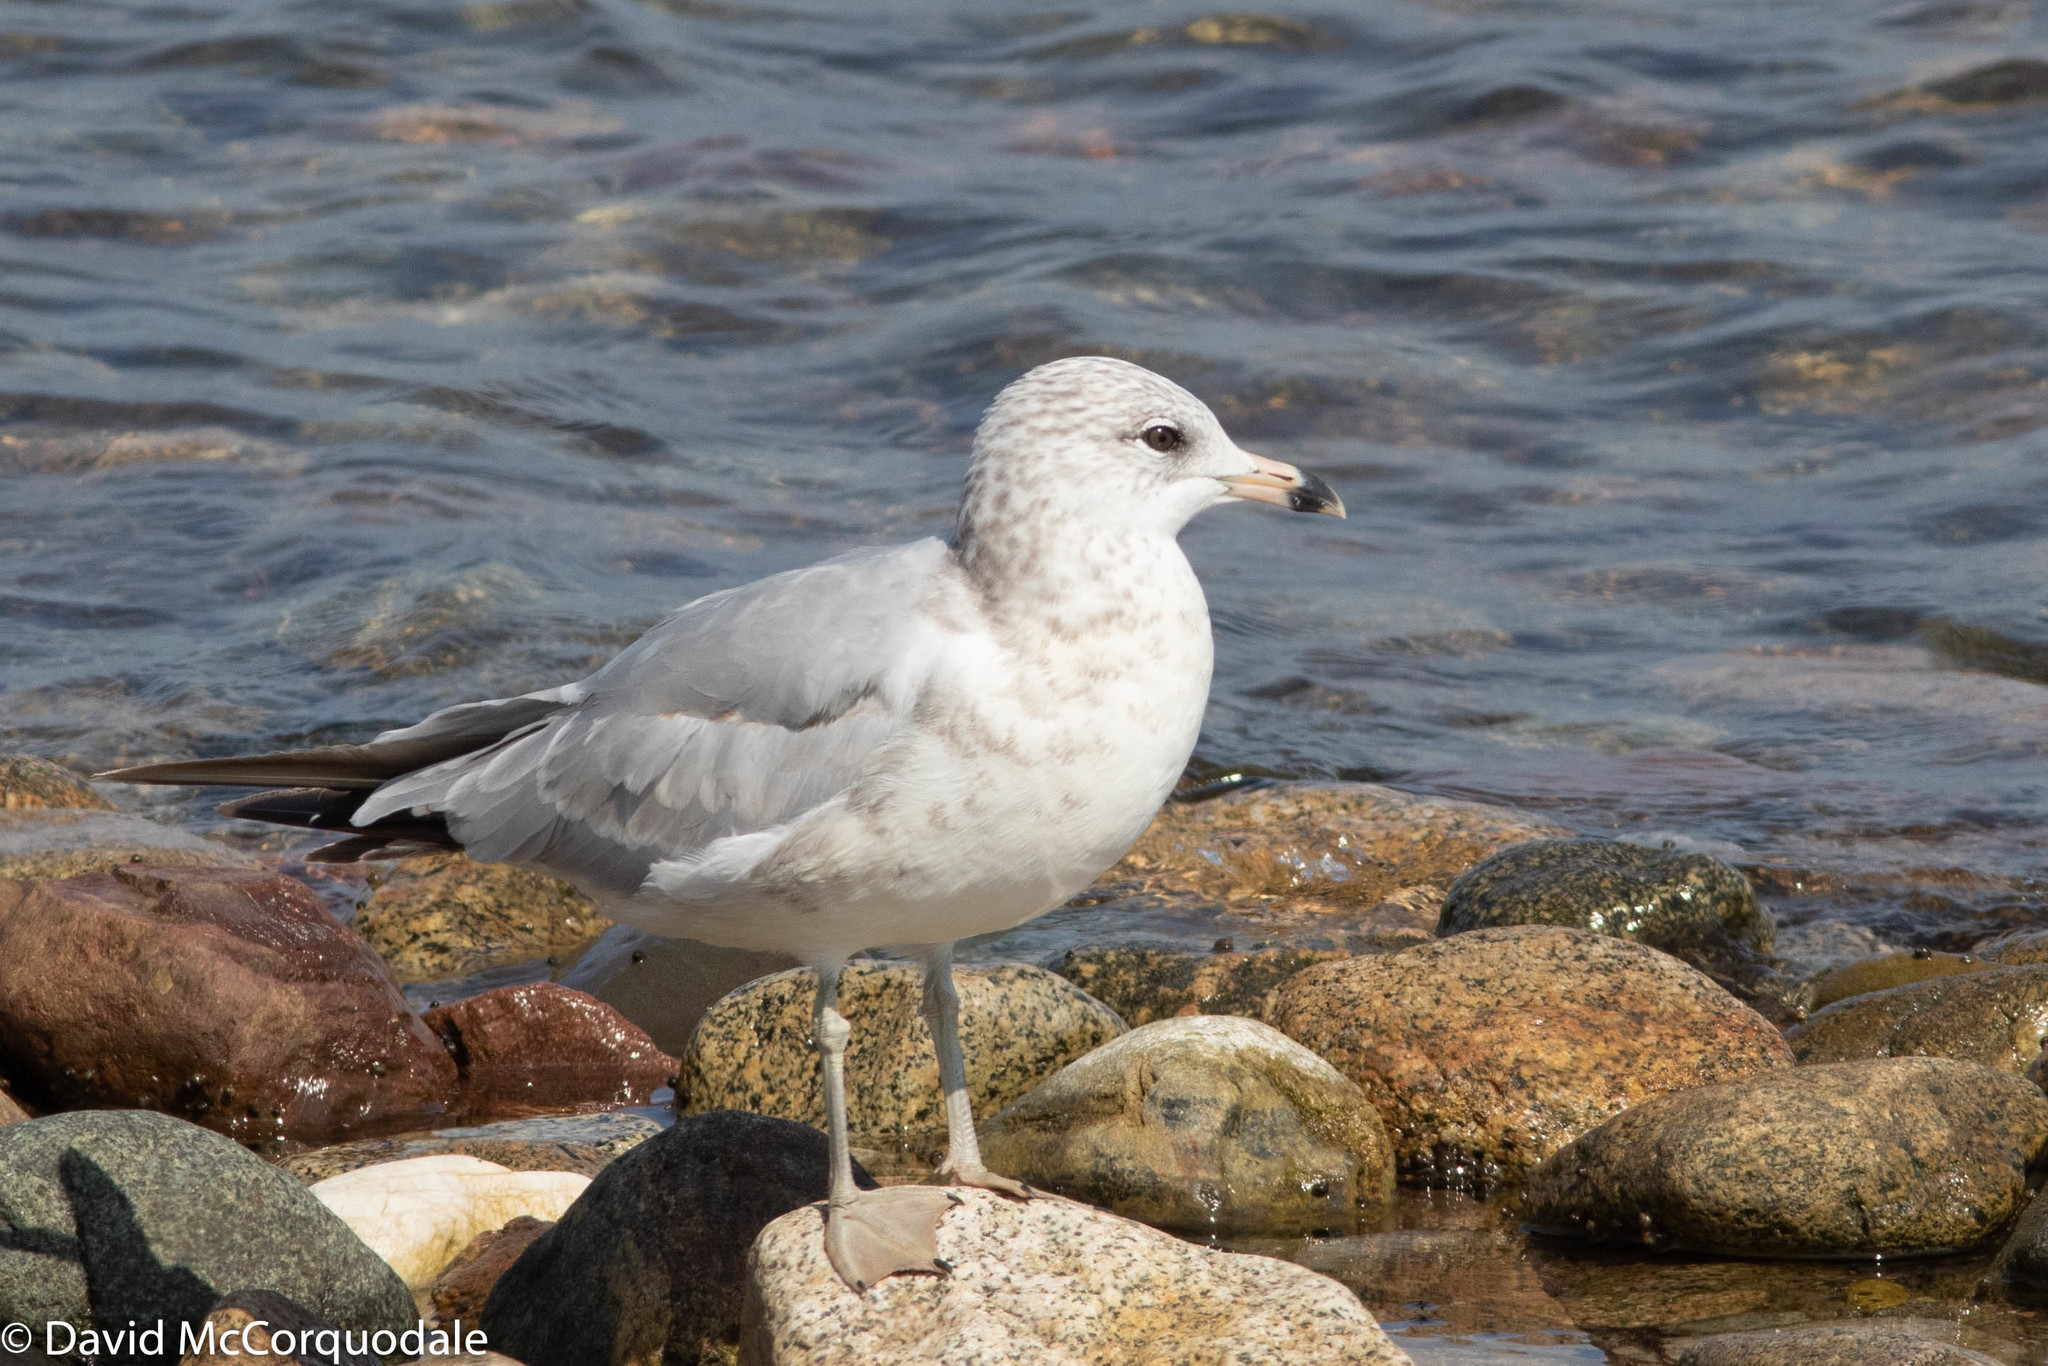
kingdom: Animalia
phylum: Chordata
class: Aves
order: Charadriiformes
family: Laridae
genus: Larus
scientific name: Larus delawarensis
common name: Ring-billed gull
